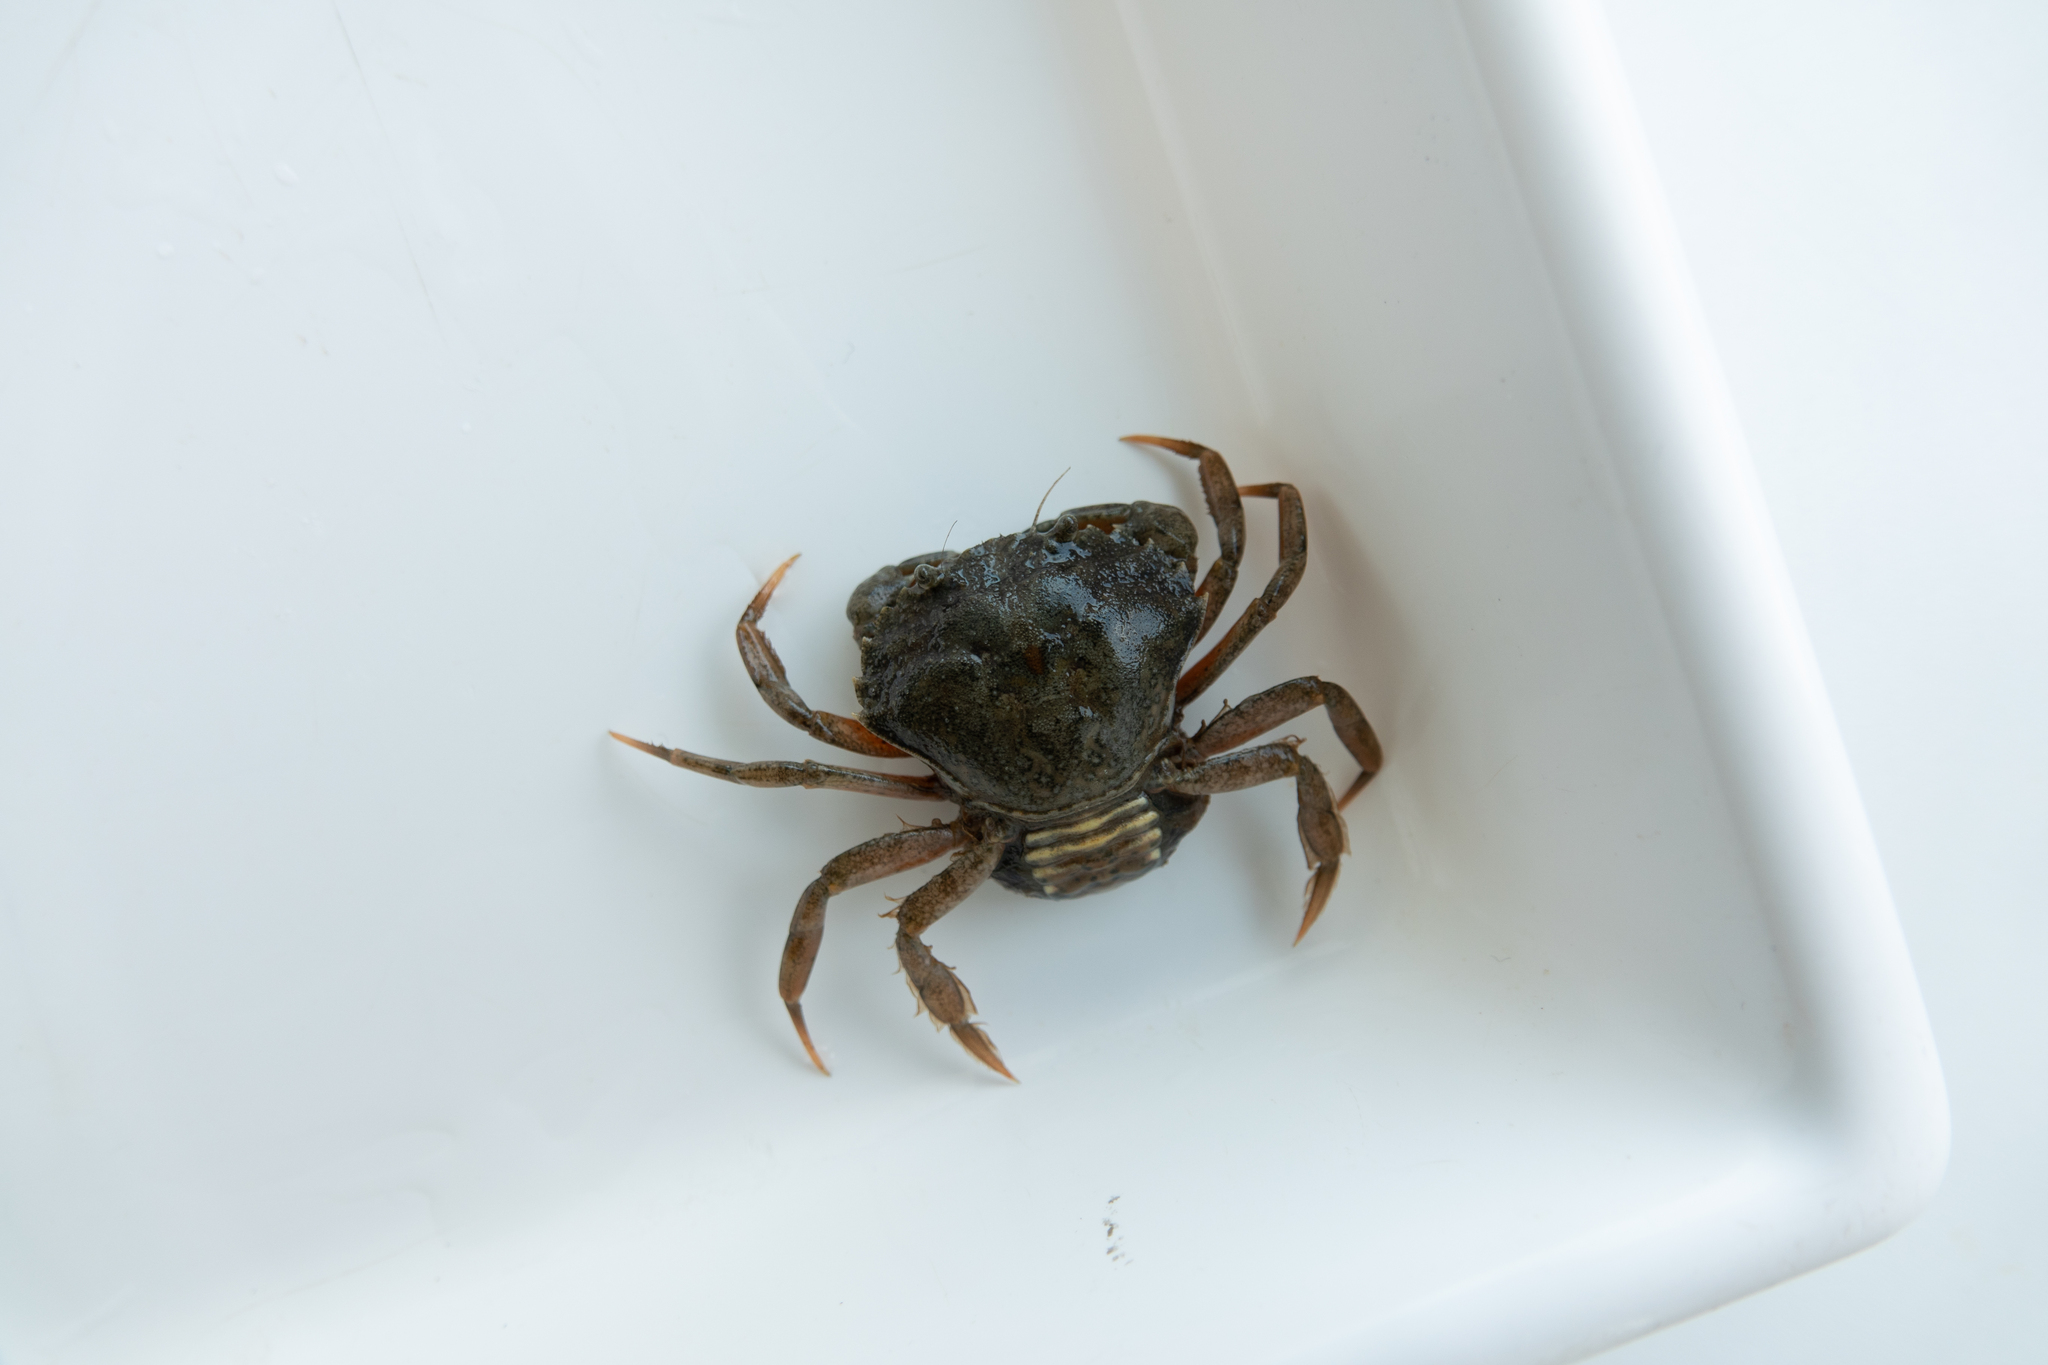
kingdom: Animalia
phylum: Arthropoda
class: Malacostraca
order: Decapoda
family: Carcinidae
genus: Carcinus
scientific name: Carcinus maenas
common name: European green crab
